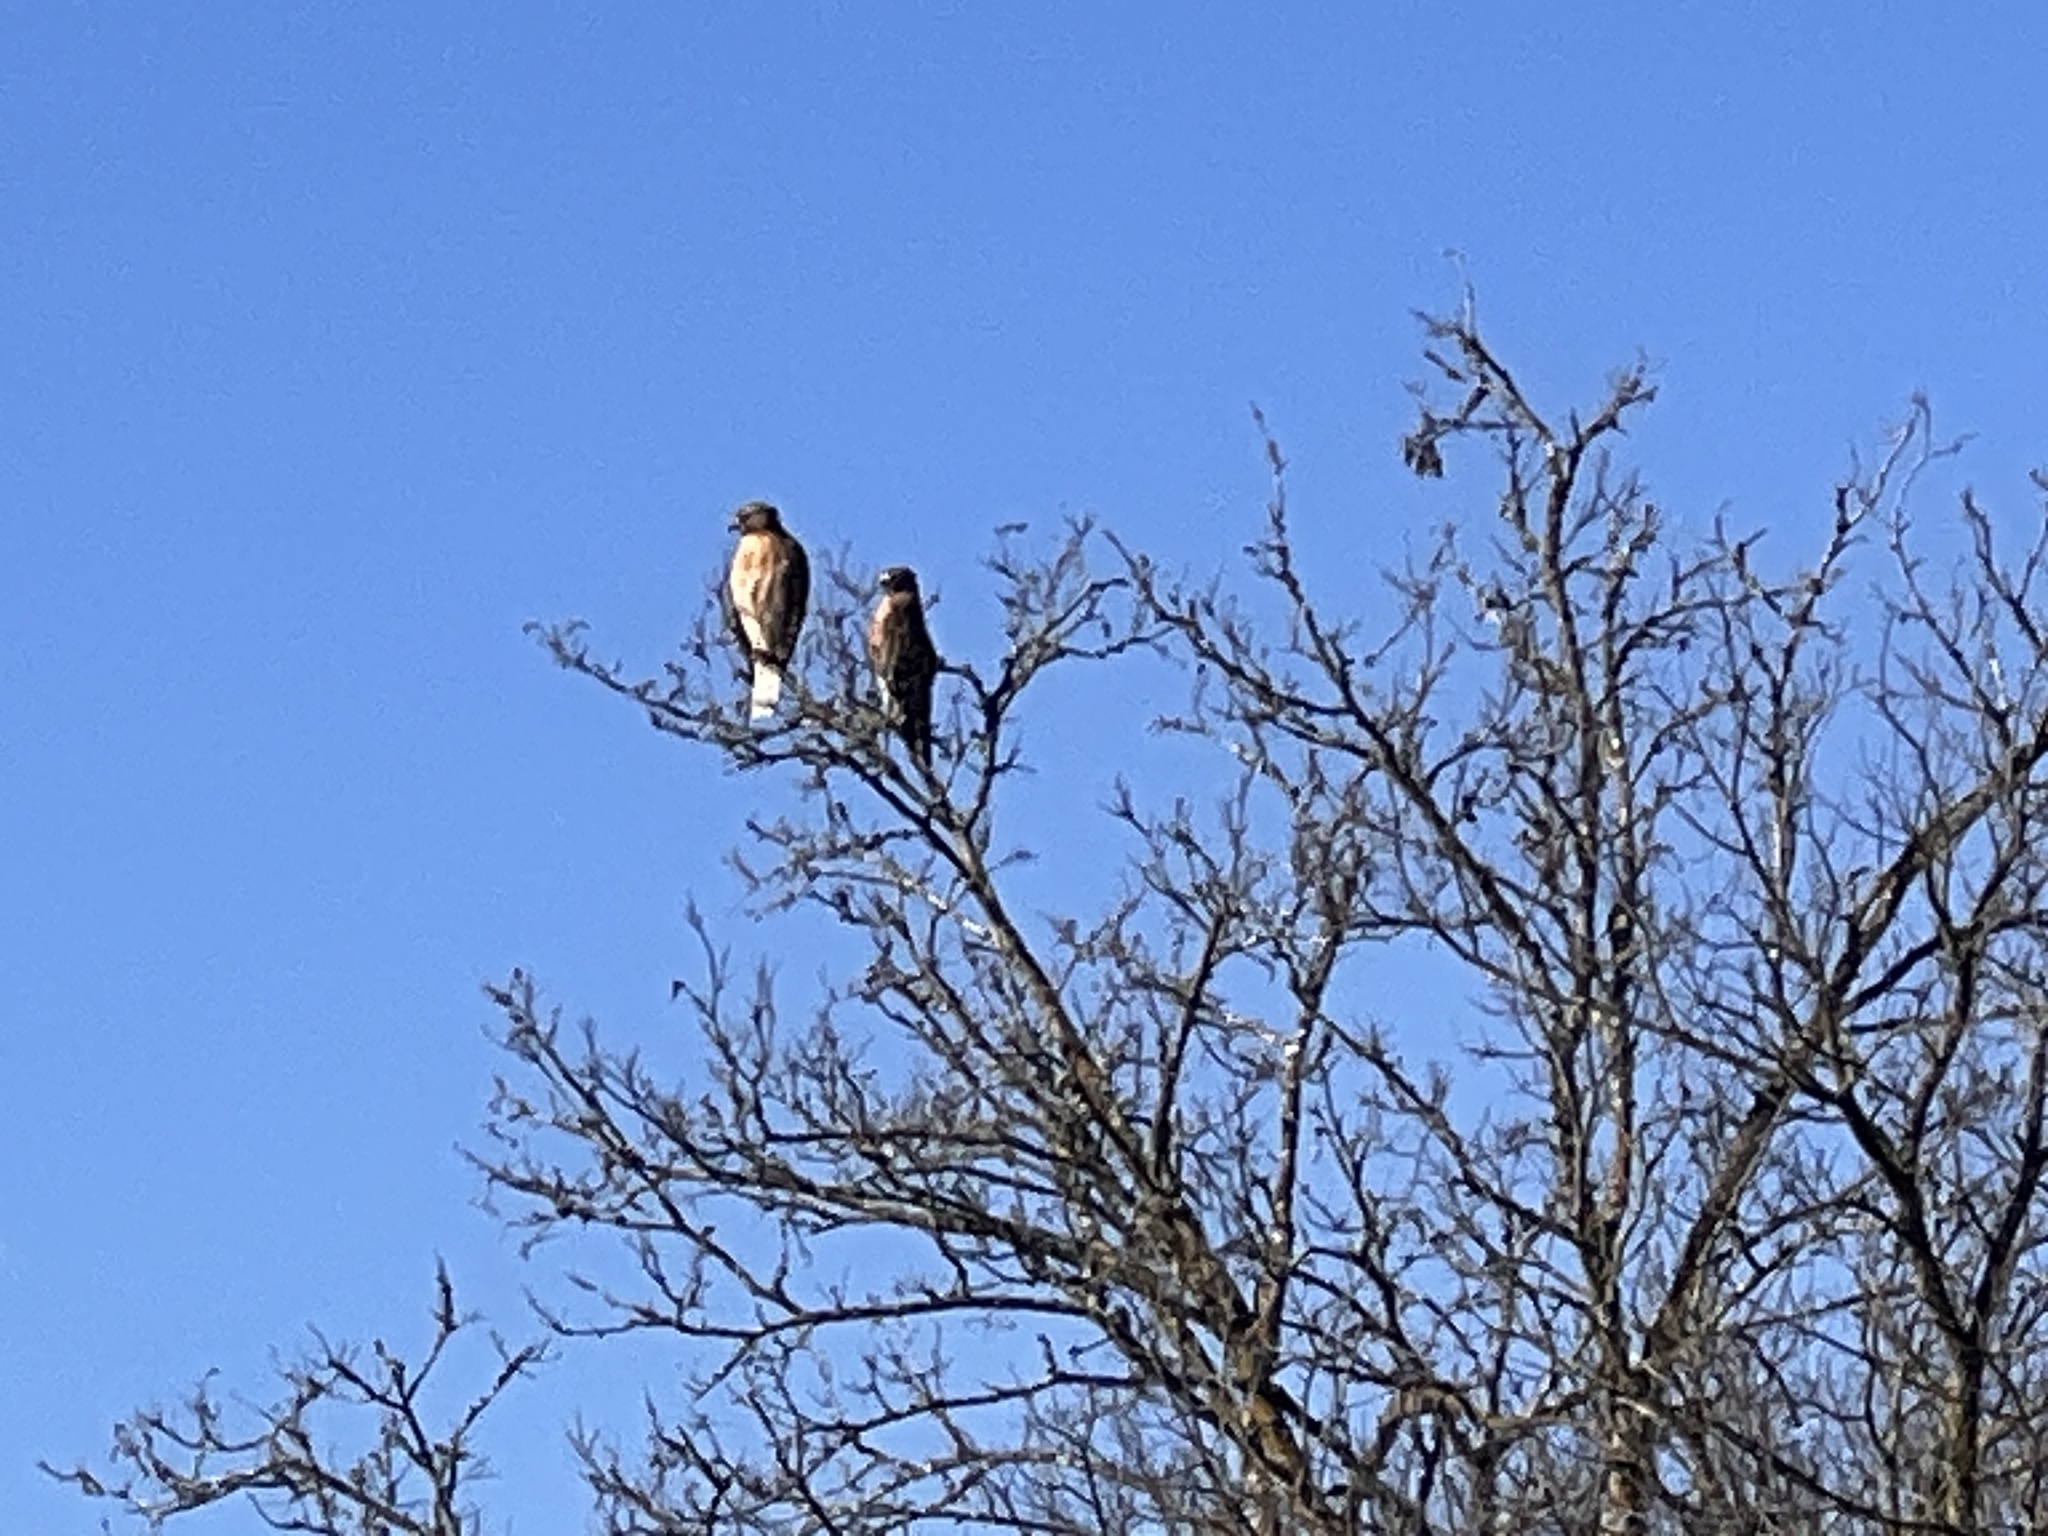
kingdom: Animalia
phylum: Chordata
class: Aves
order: Accipitriformes
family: Accipitridae
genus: Buteo
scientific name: Buteo lineatus
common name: Red-shouldered hawk
